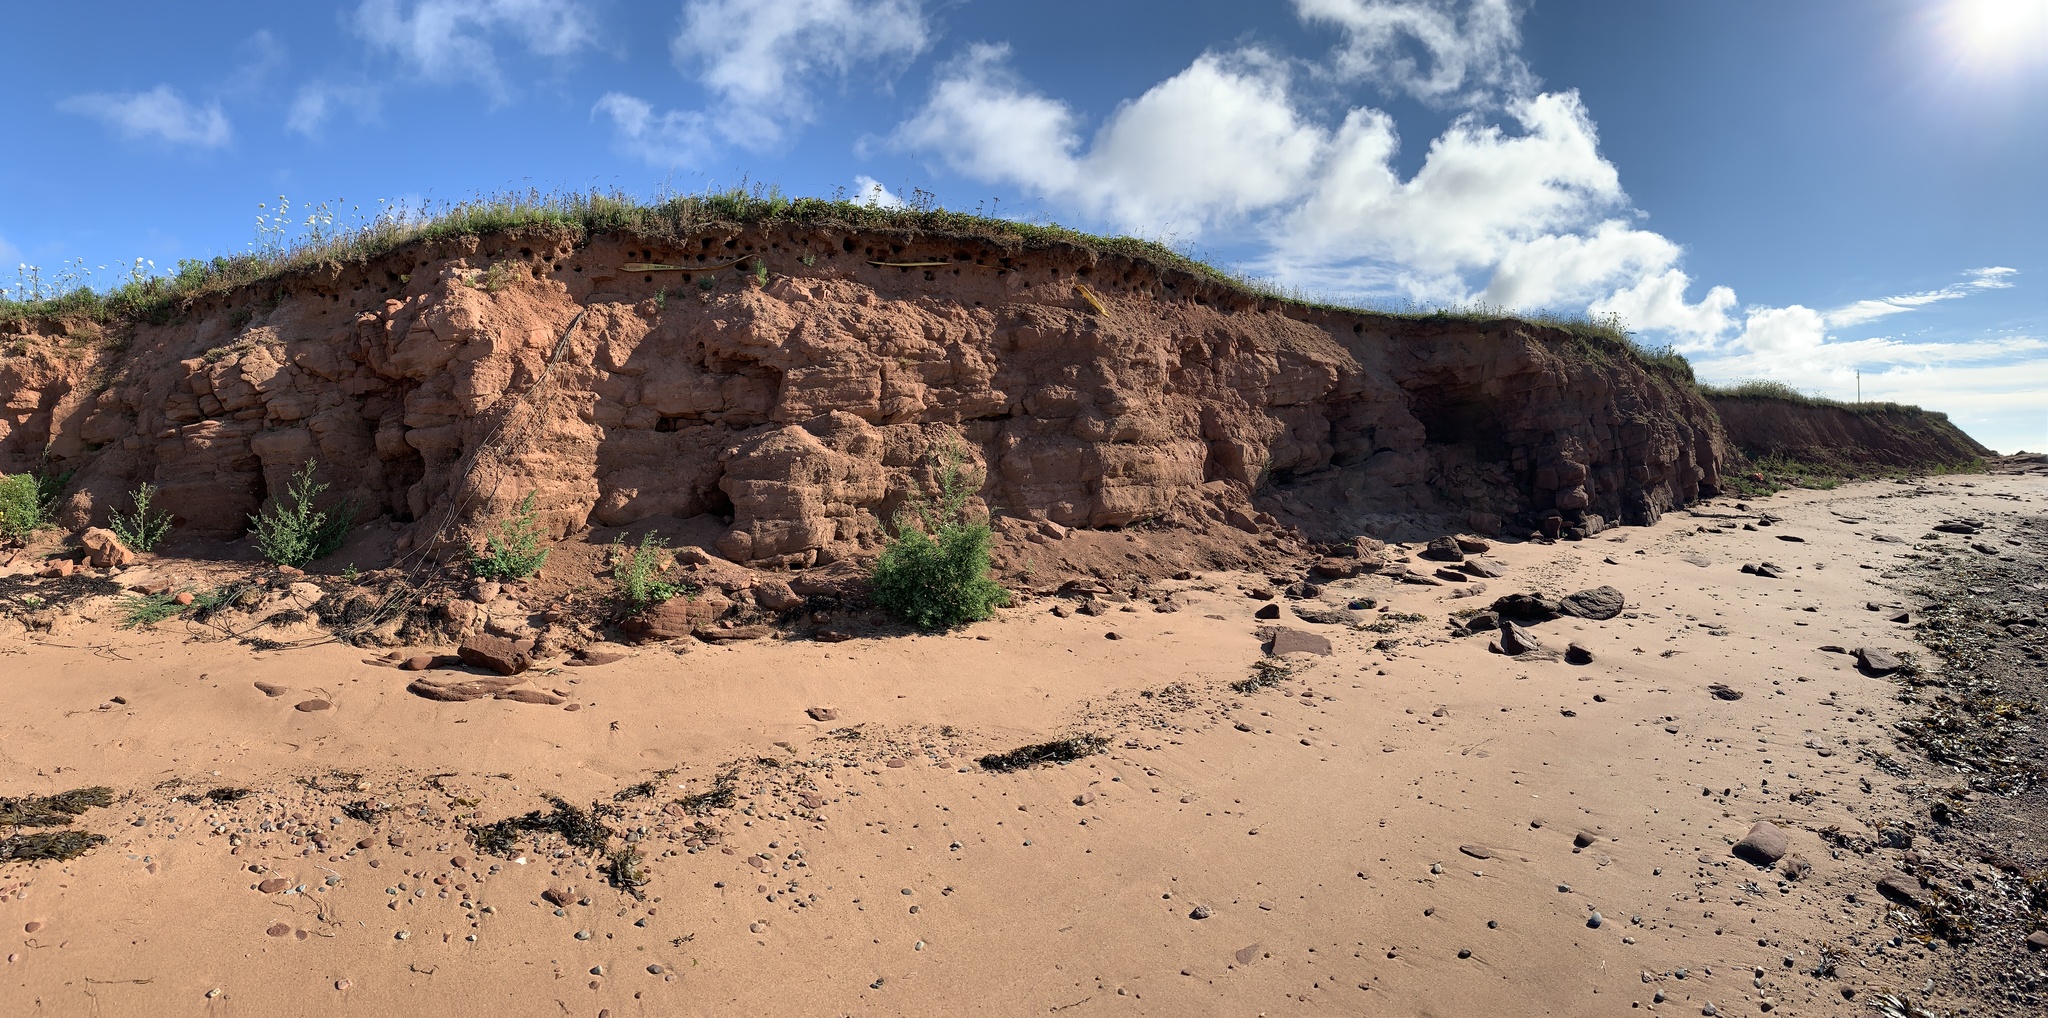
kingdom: Animalia
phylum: Chordata
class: Aves
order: Passeriformes
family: Hirundinidae
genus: Riparia
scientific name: Riparia riparia
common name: Sand martin
